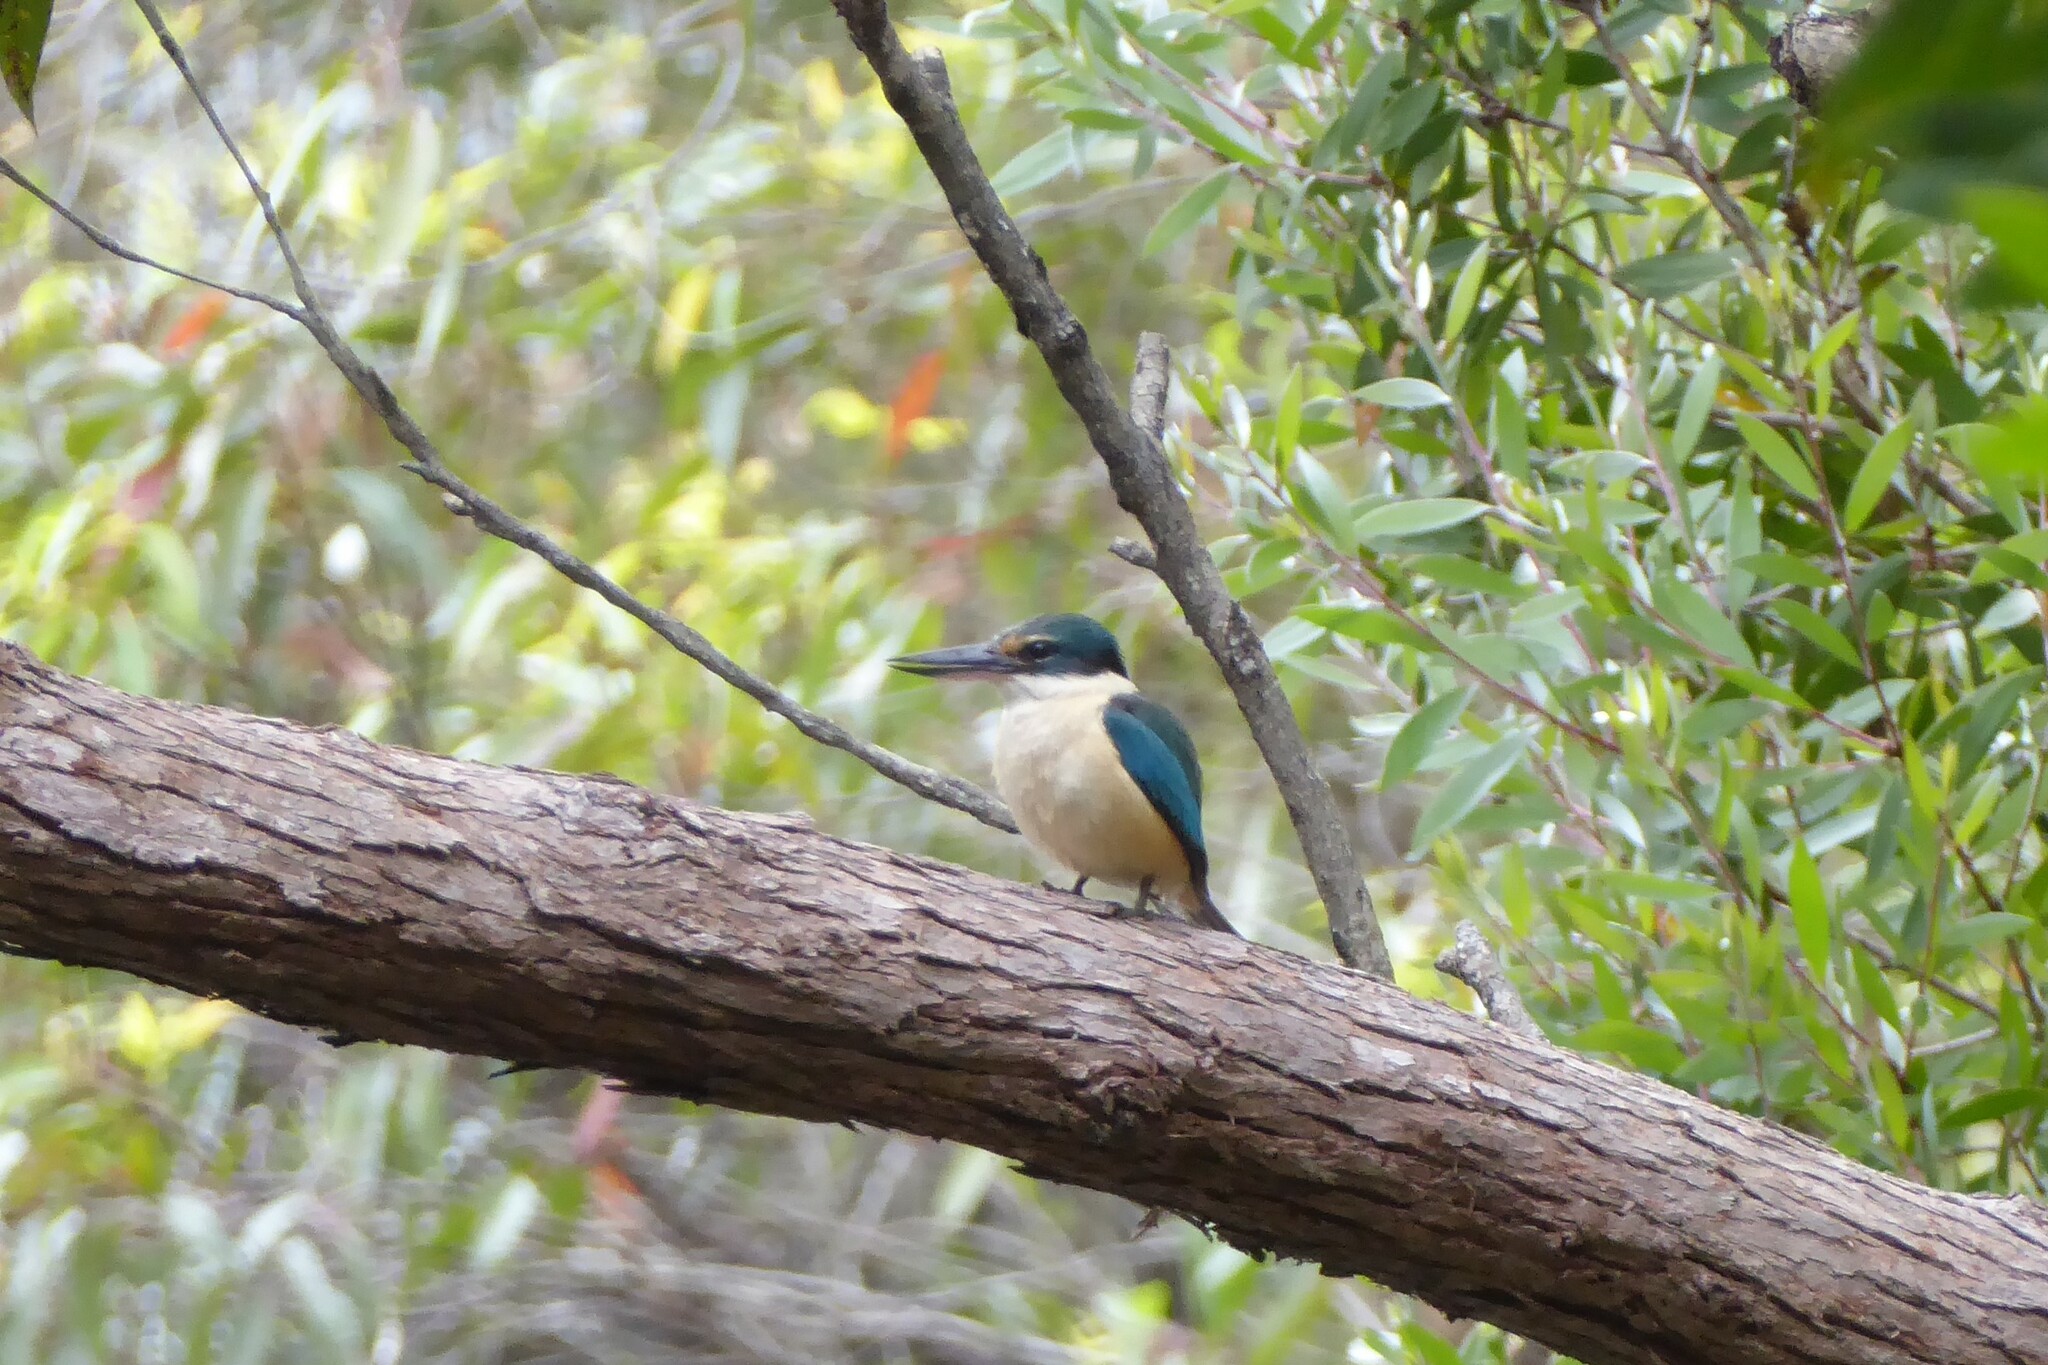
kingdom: Animalia
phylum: Chordata
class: Aves
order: Coraciiformes
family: Alcedinidae
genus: Todiramphus
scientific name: Todiramphus sanctus
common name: Sacred kingfisher
